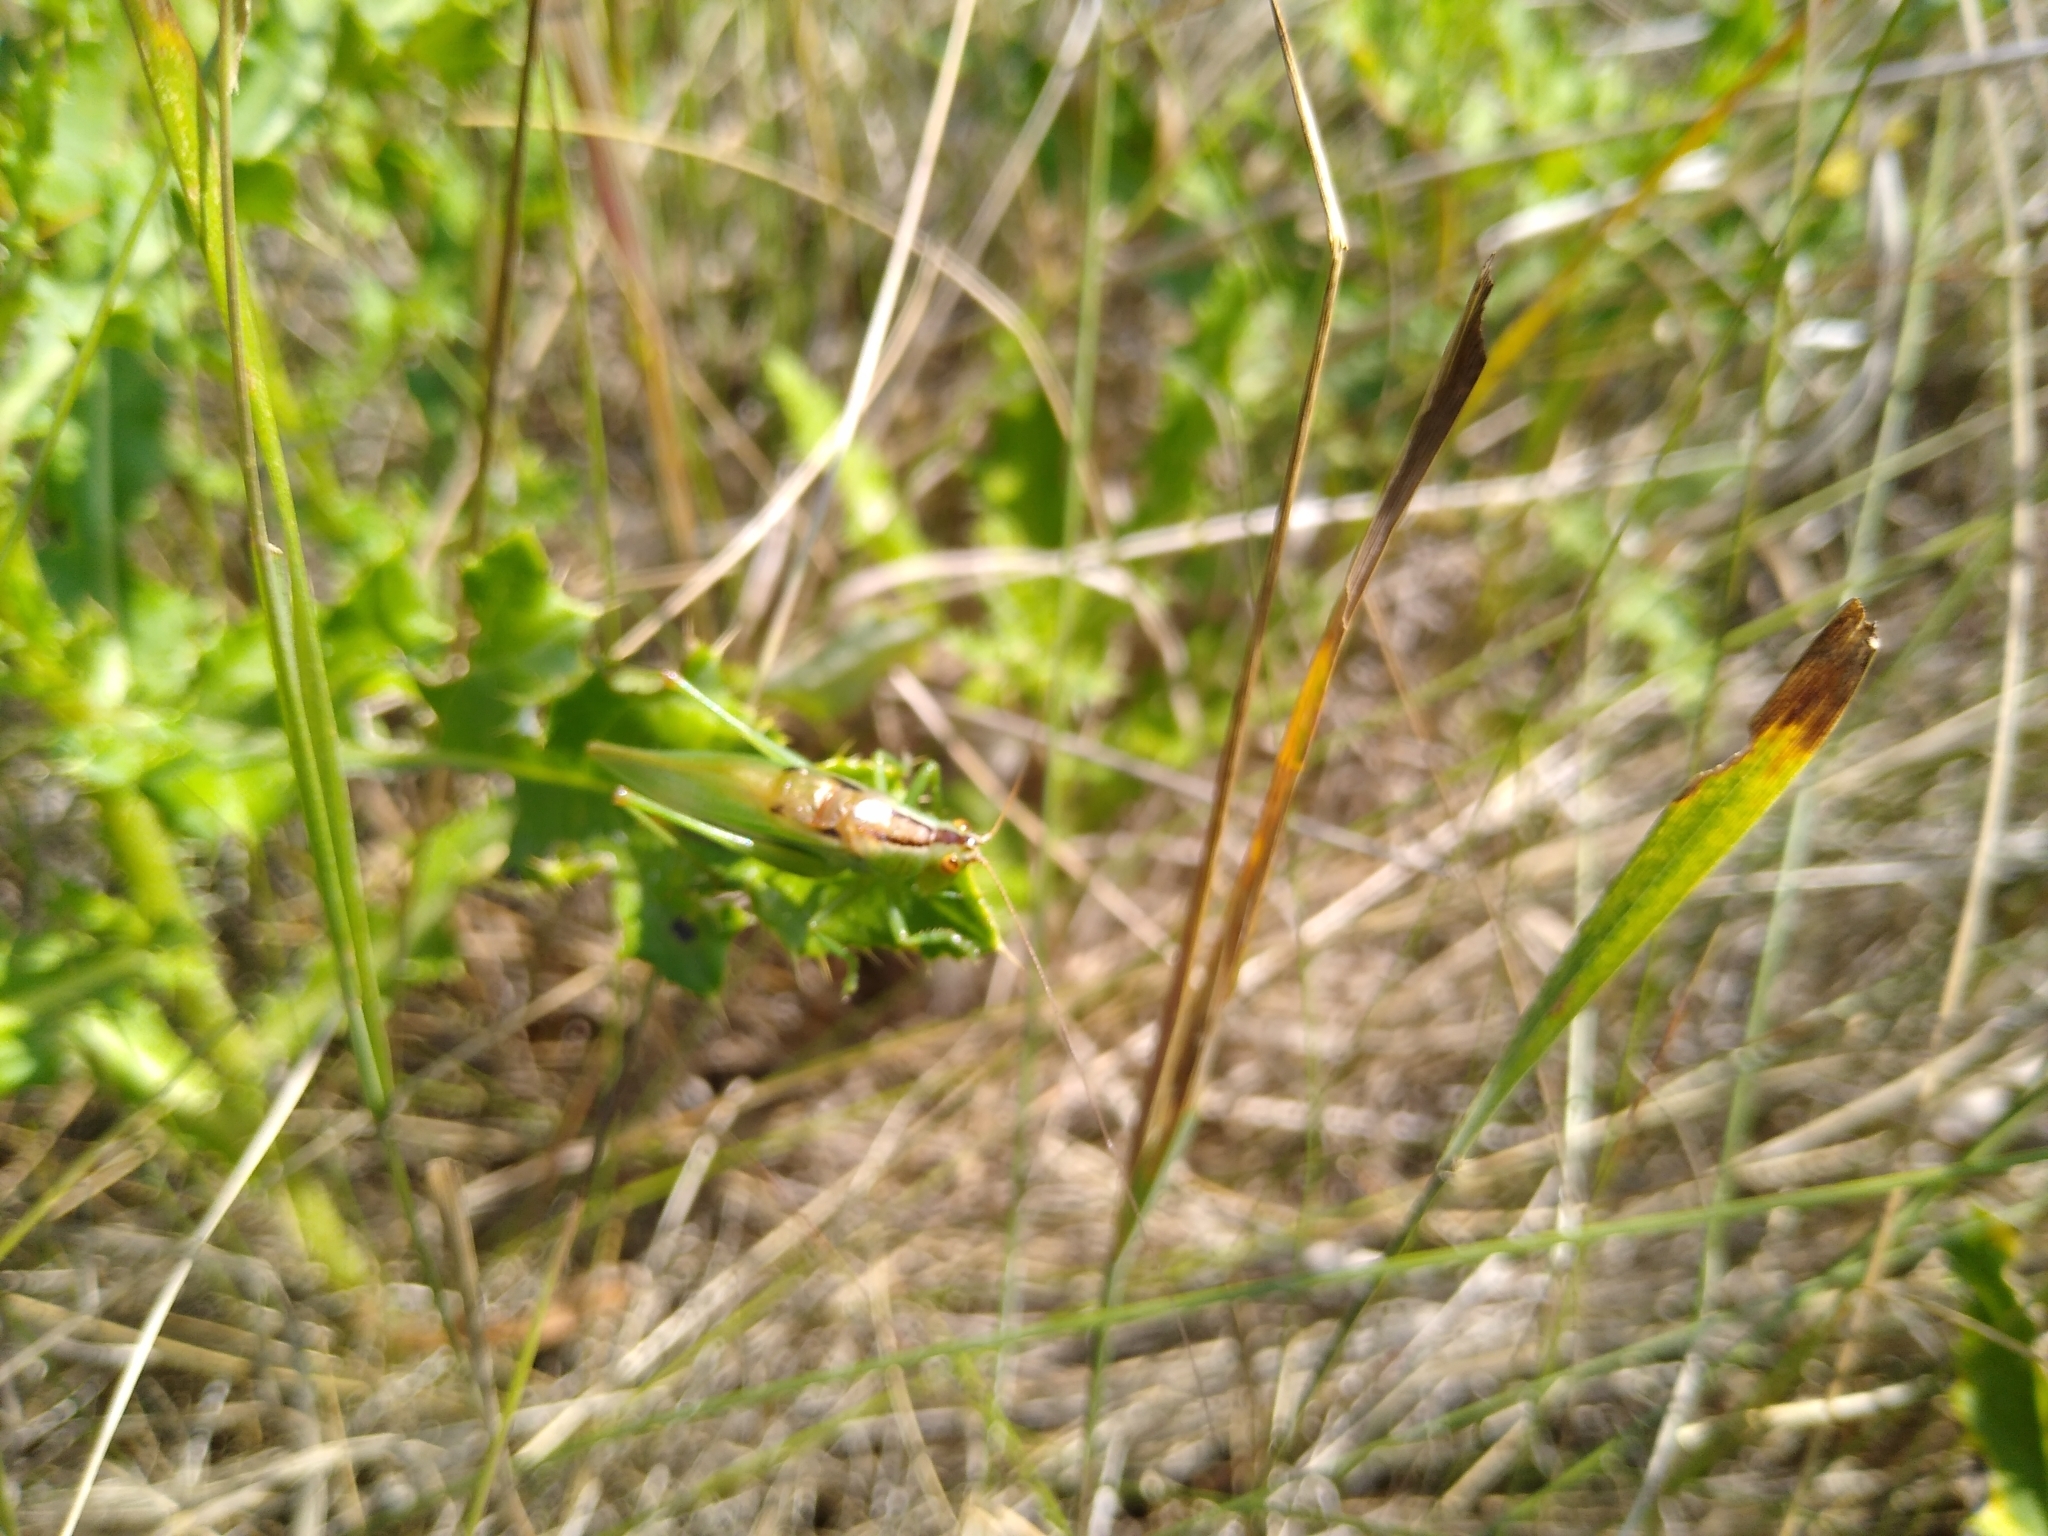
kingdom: Animalia
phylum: Arthropoda
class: Insecta
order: Orthoptera
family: Tettigoniidae
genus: Orchelimum
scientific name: Orchelimum gladiator
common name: Gladiator meadow katydid
